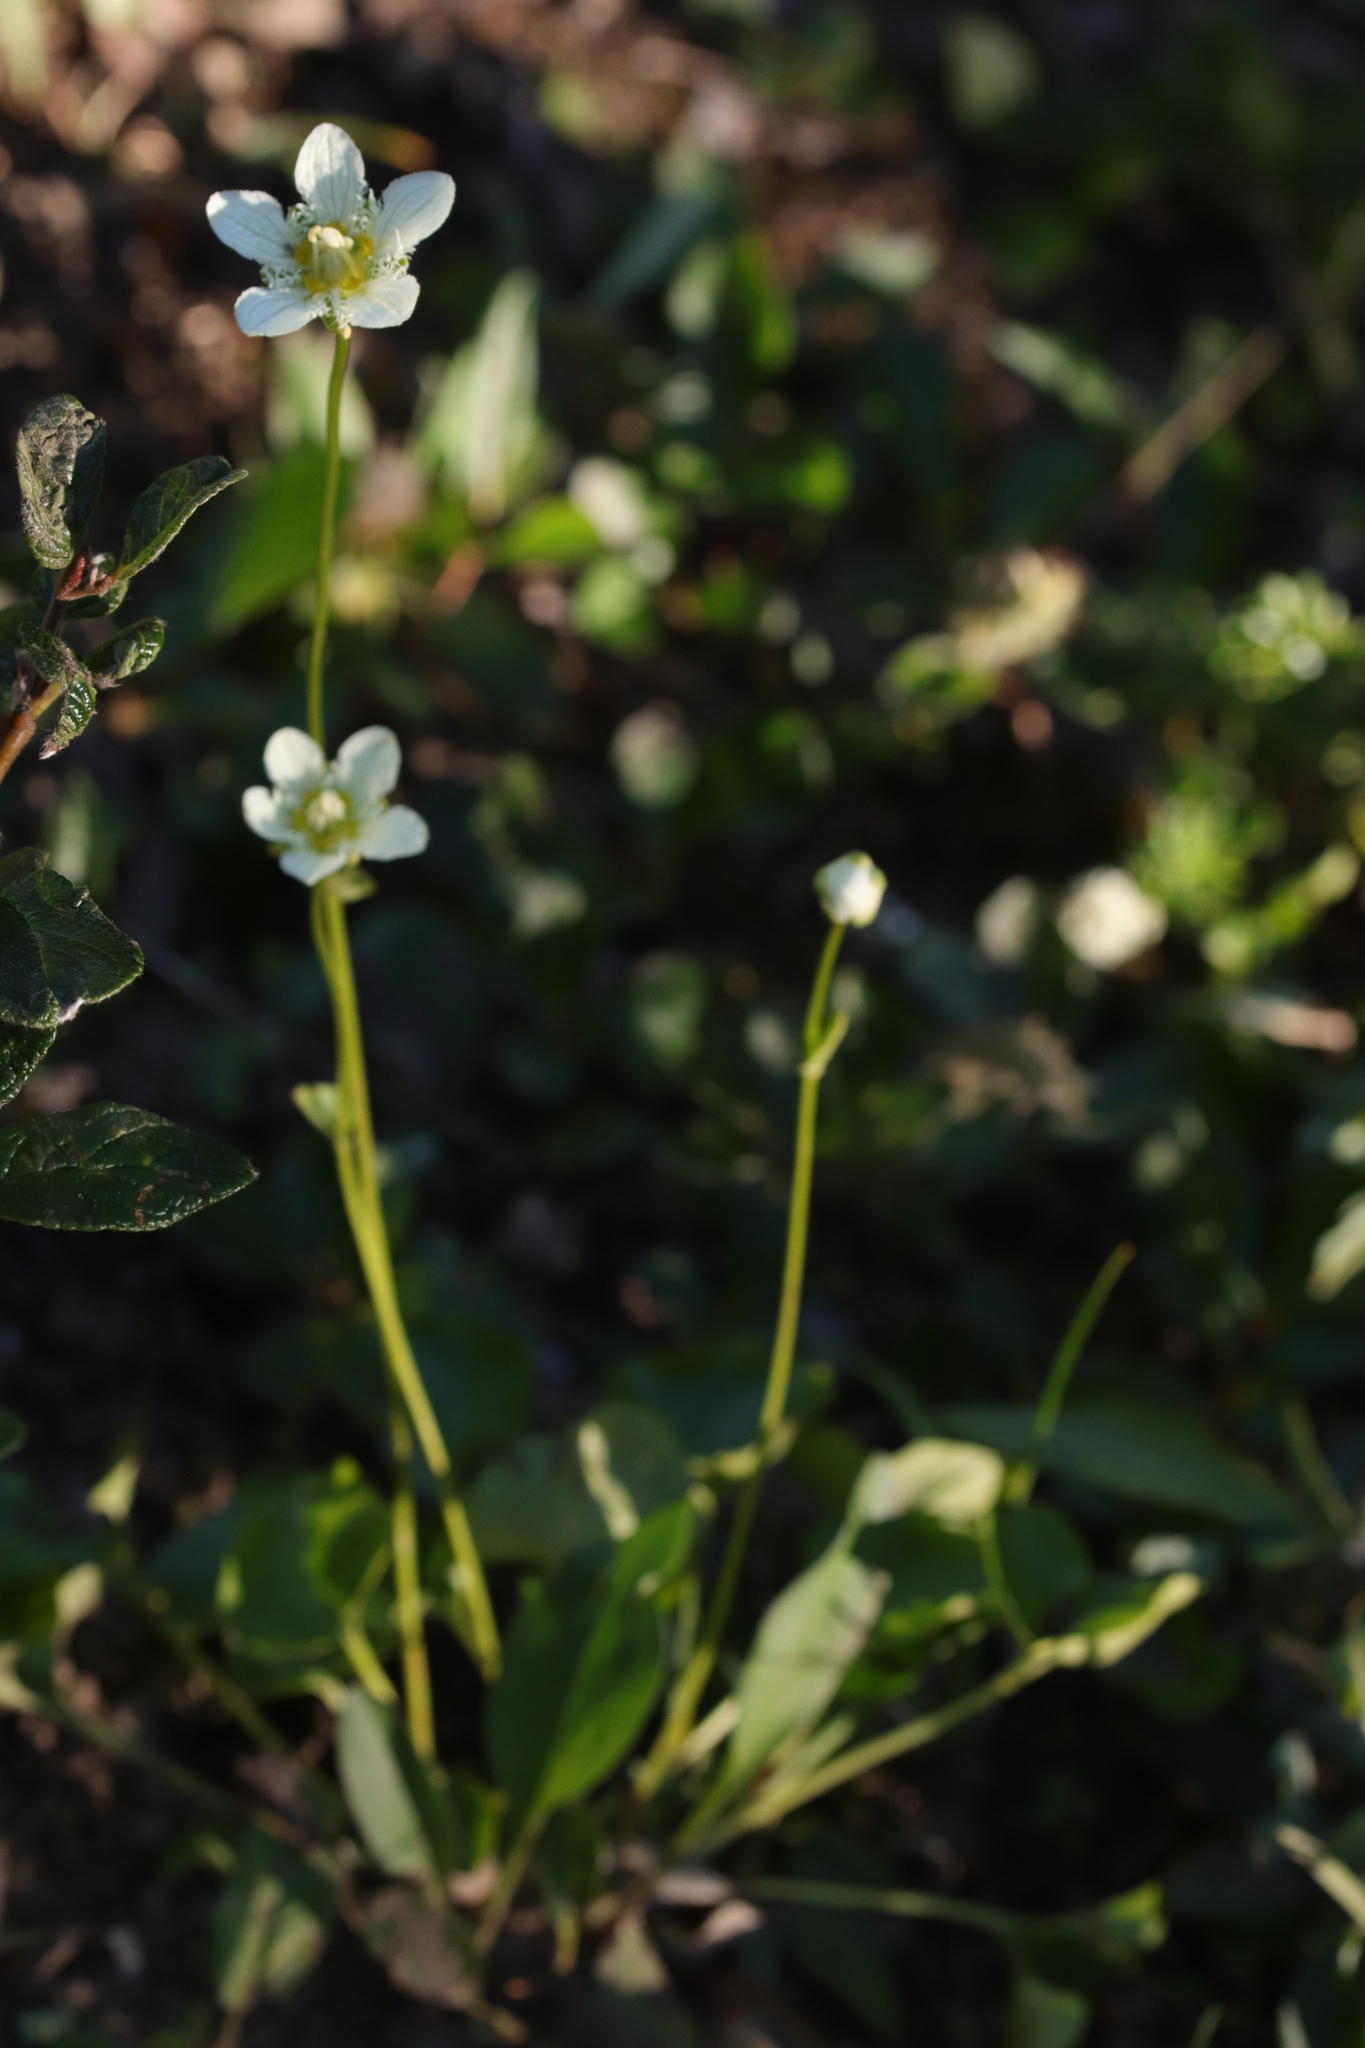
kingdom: Plantae
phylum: Tracheophyta
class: Magnoliopsida
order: Celastrales
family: Parnassiaceae
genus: Parnassia
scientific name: Parnassia fimbriata
